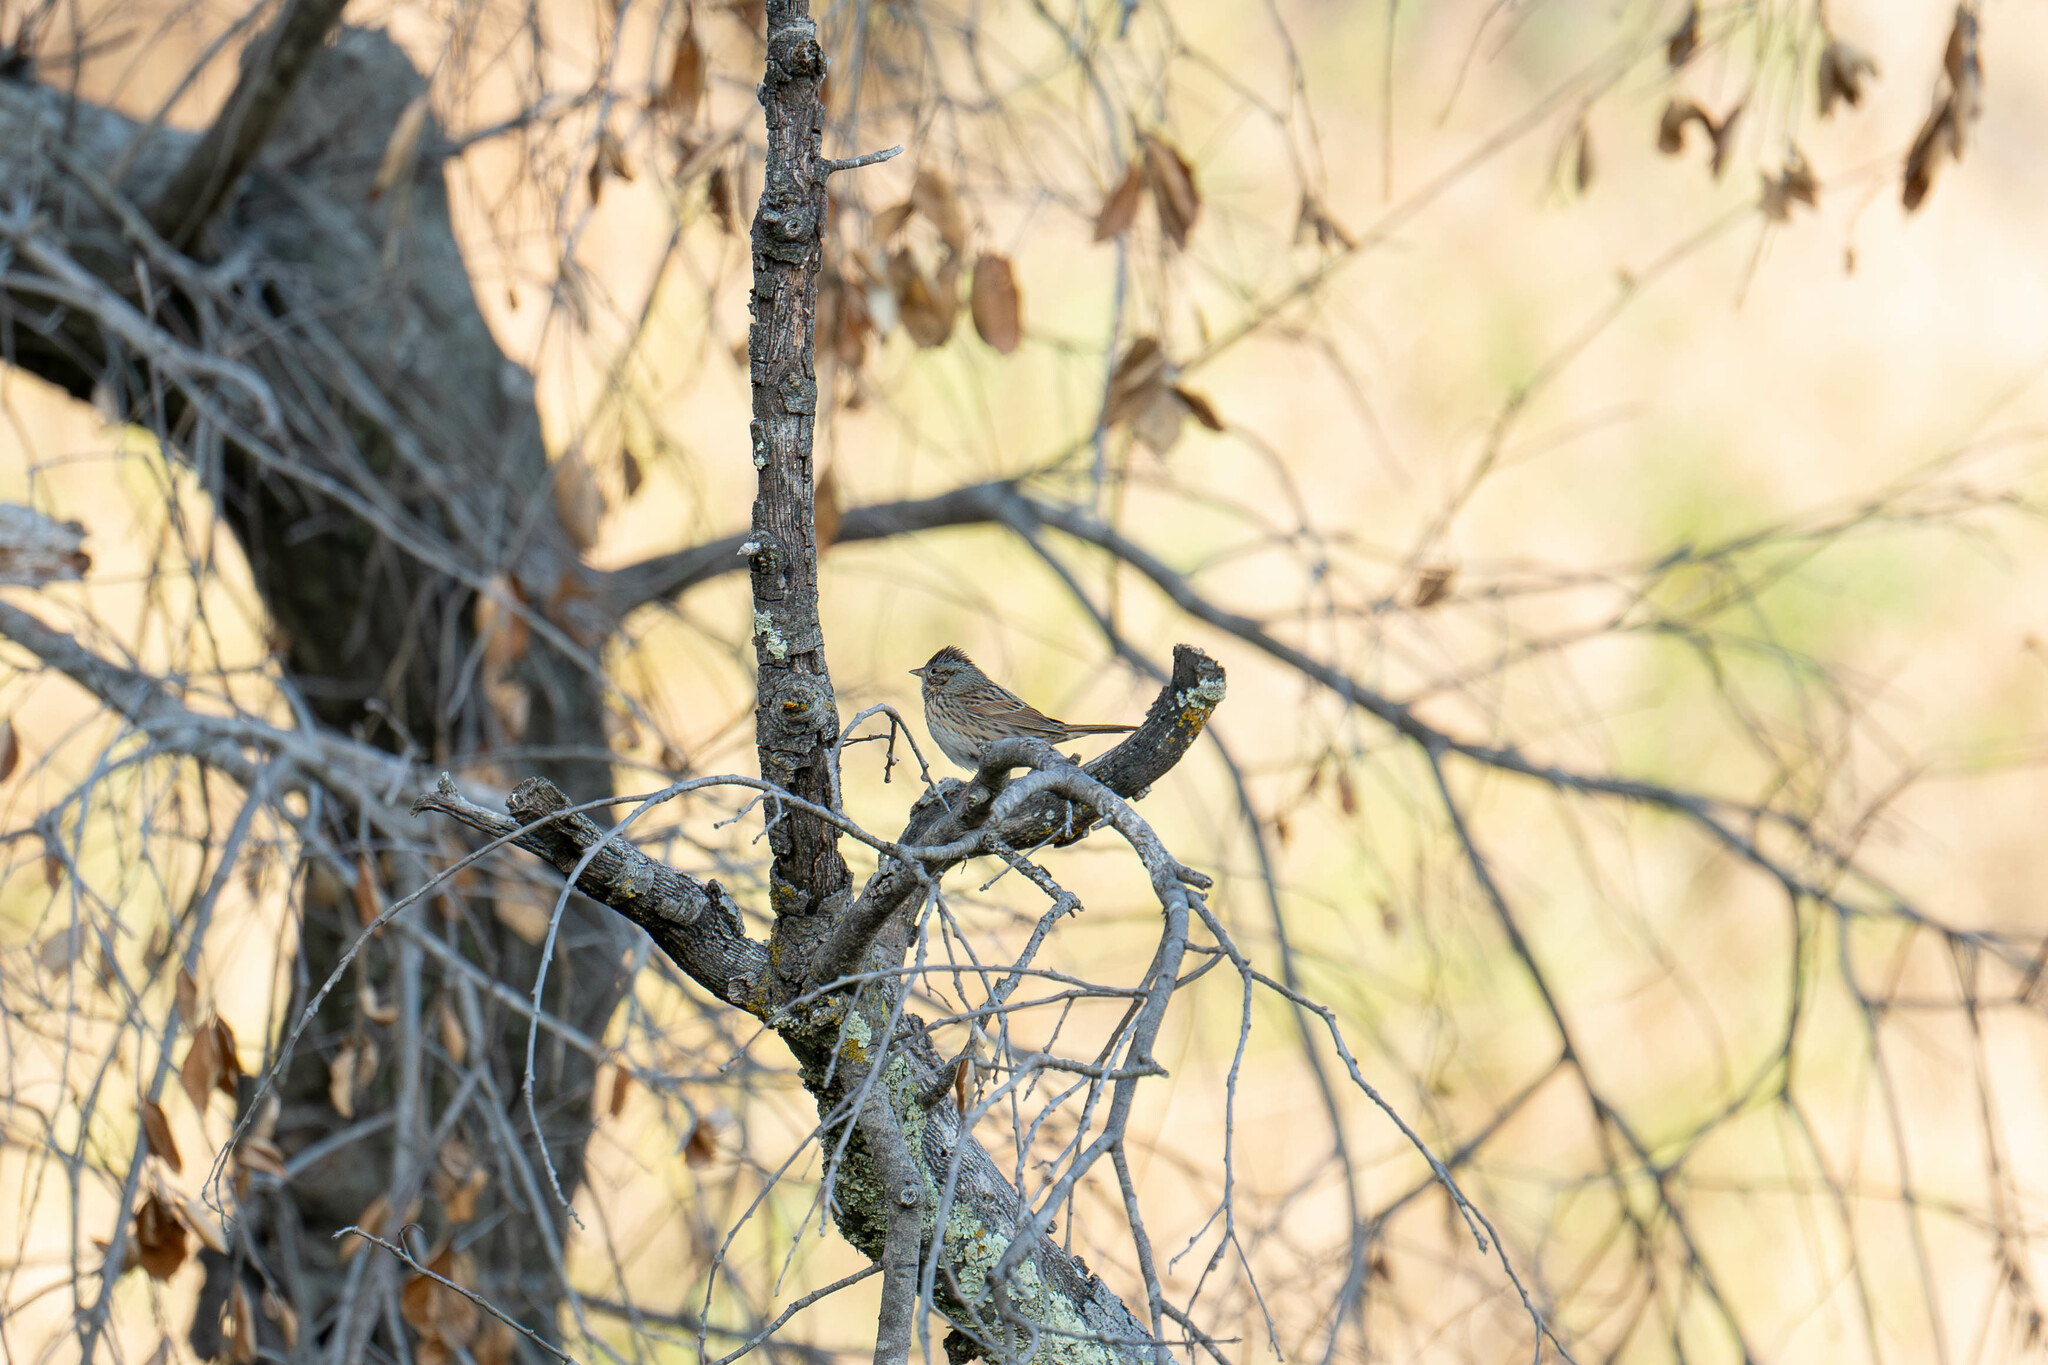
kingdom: Animalia
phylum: Chordata
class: Aves
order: Passeriformes
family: Passerellidae
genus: Melospiza
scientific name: Melospiza lincolnii
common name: Lincoln's sparrow
